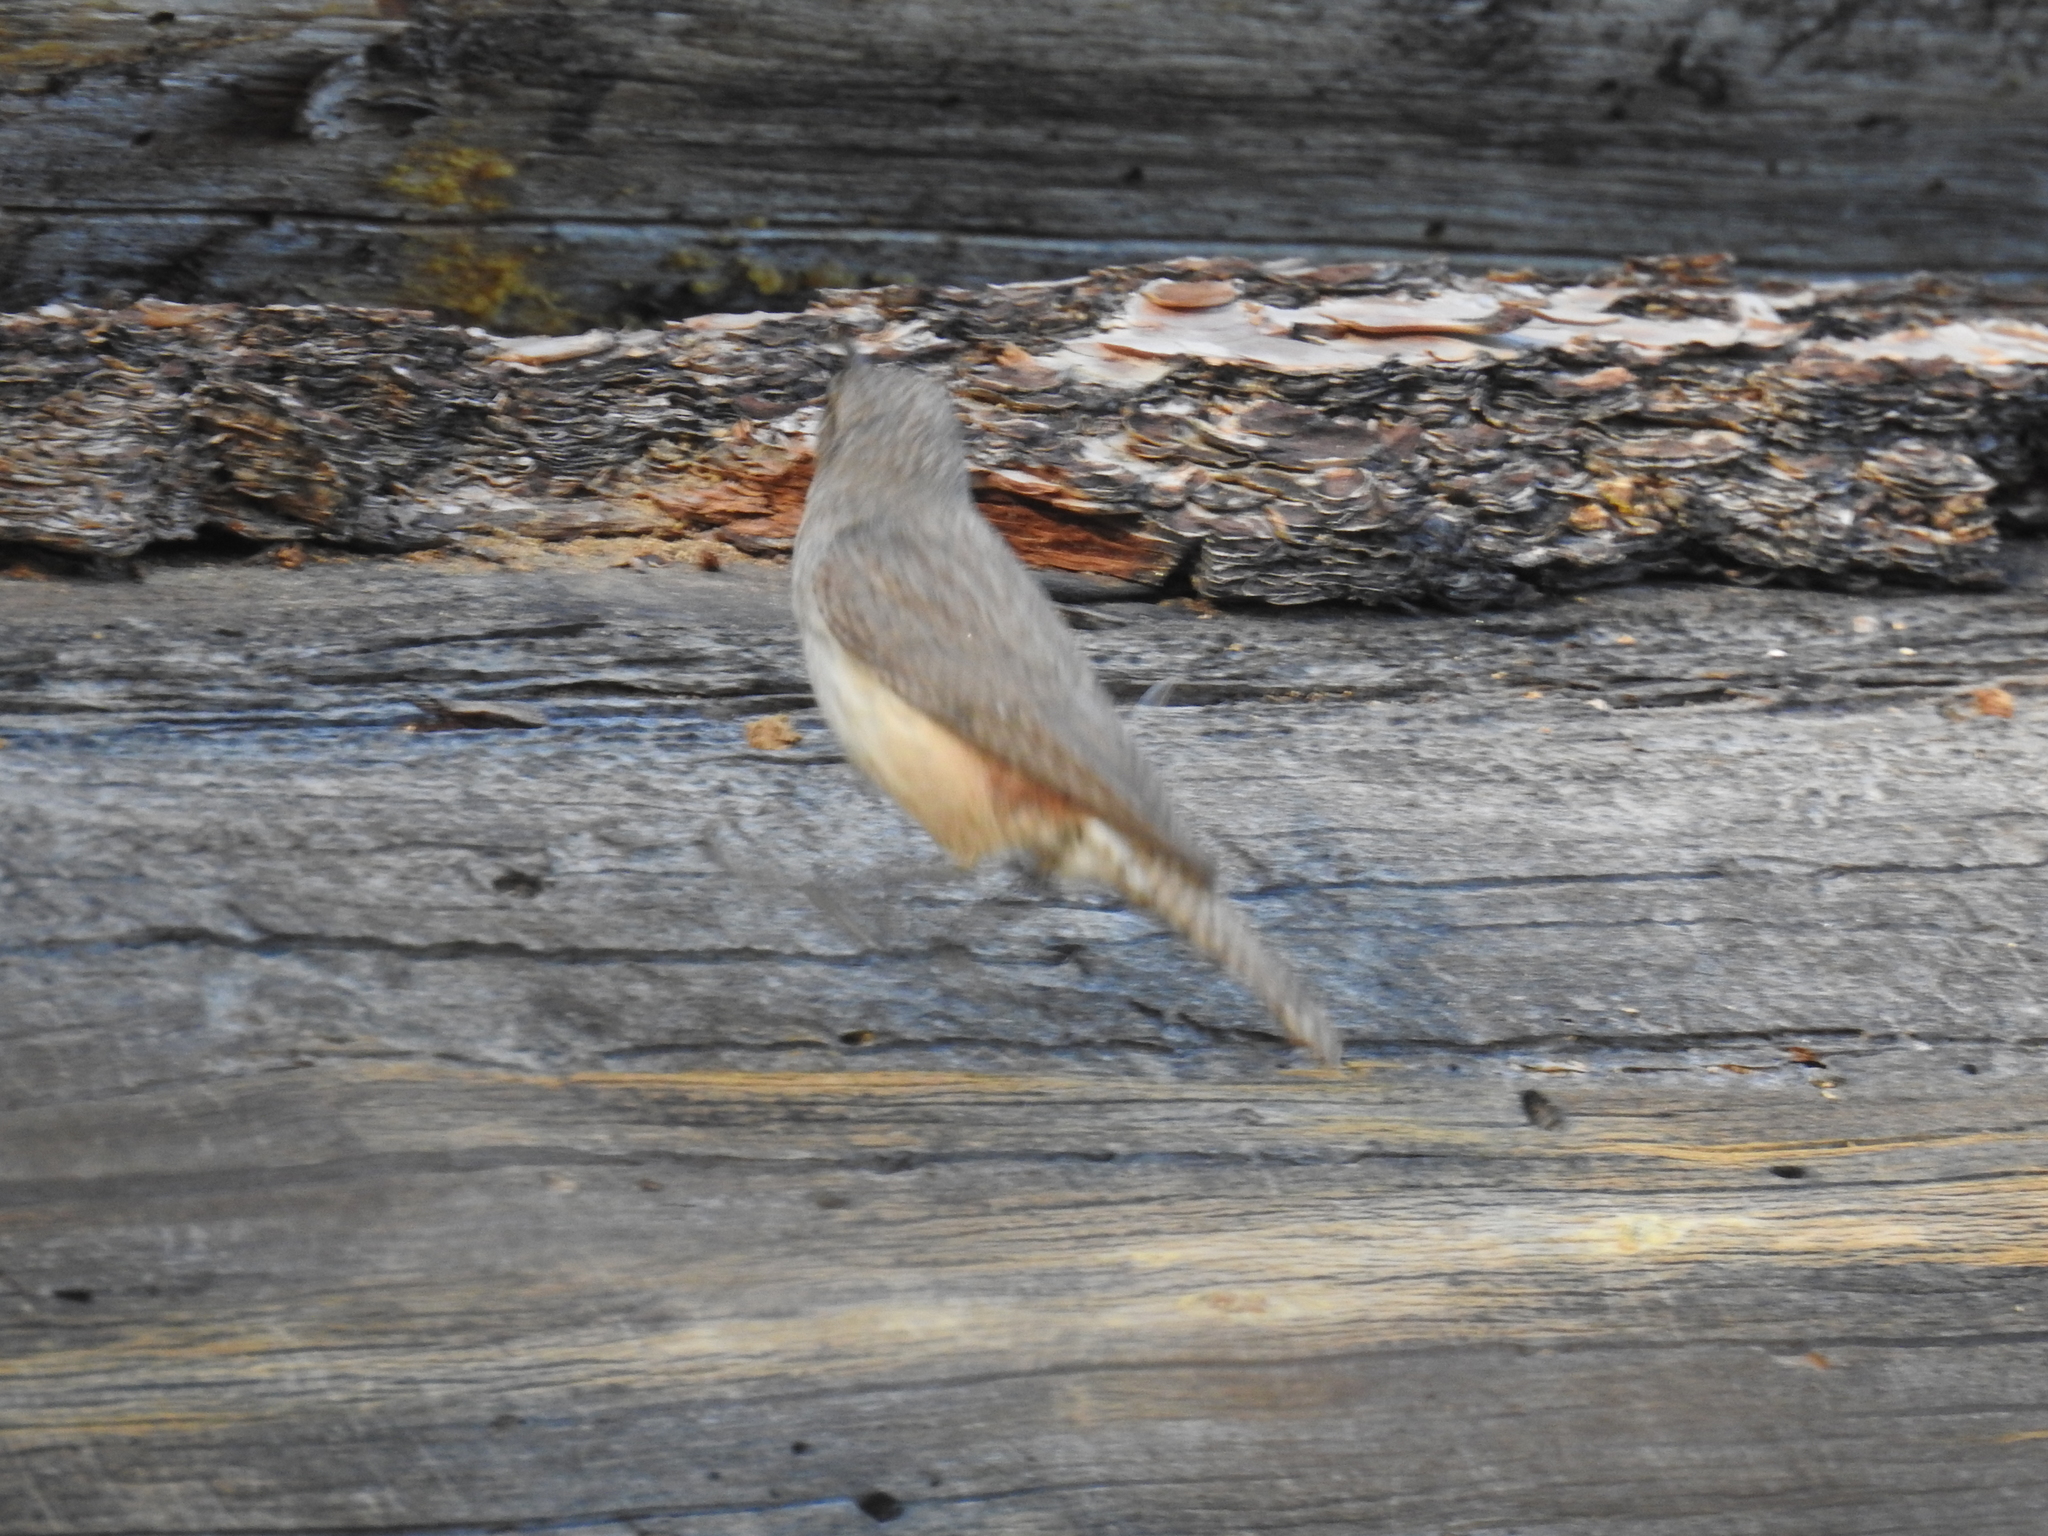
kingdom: Animalia
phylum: Chordata
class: Aves
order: Passeriformes
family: Troglodytidae
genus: Salpinctes
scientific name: Salpinctes obsoletus
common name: Rock wren
